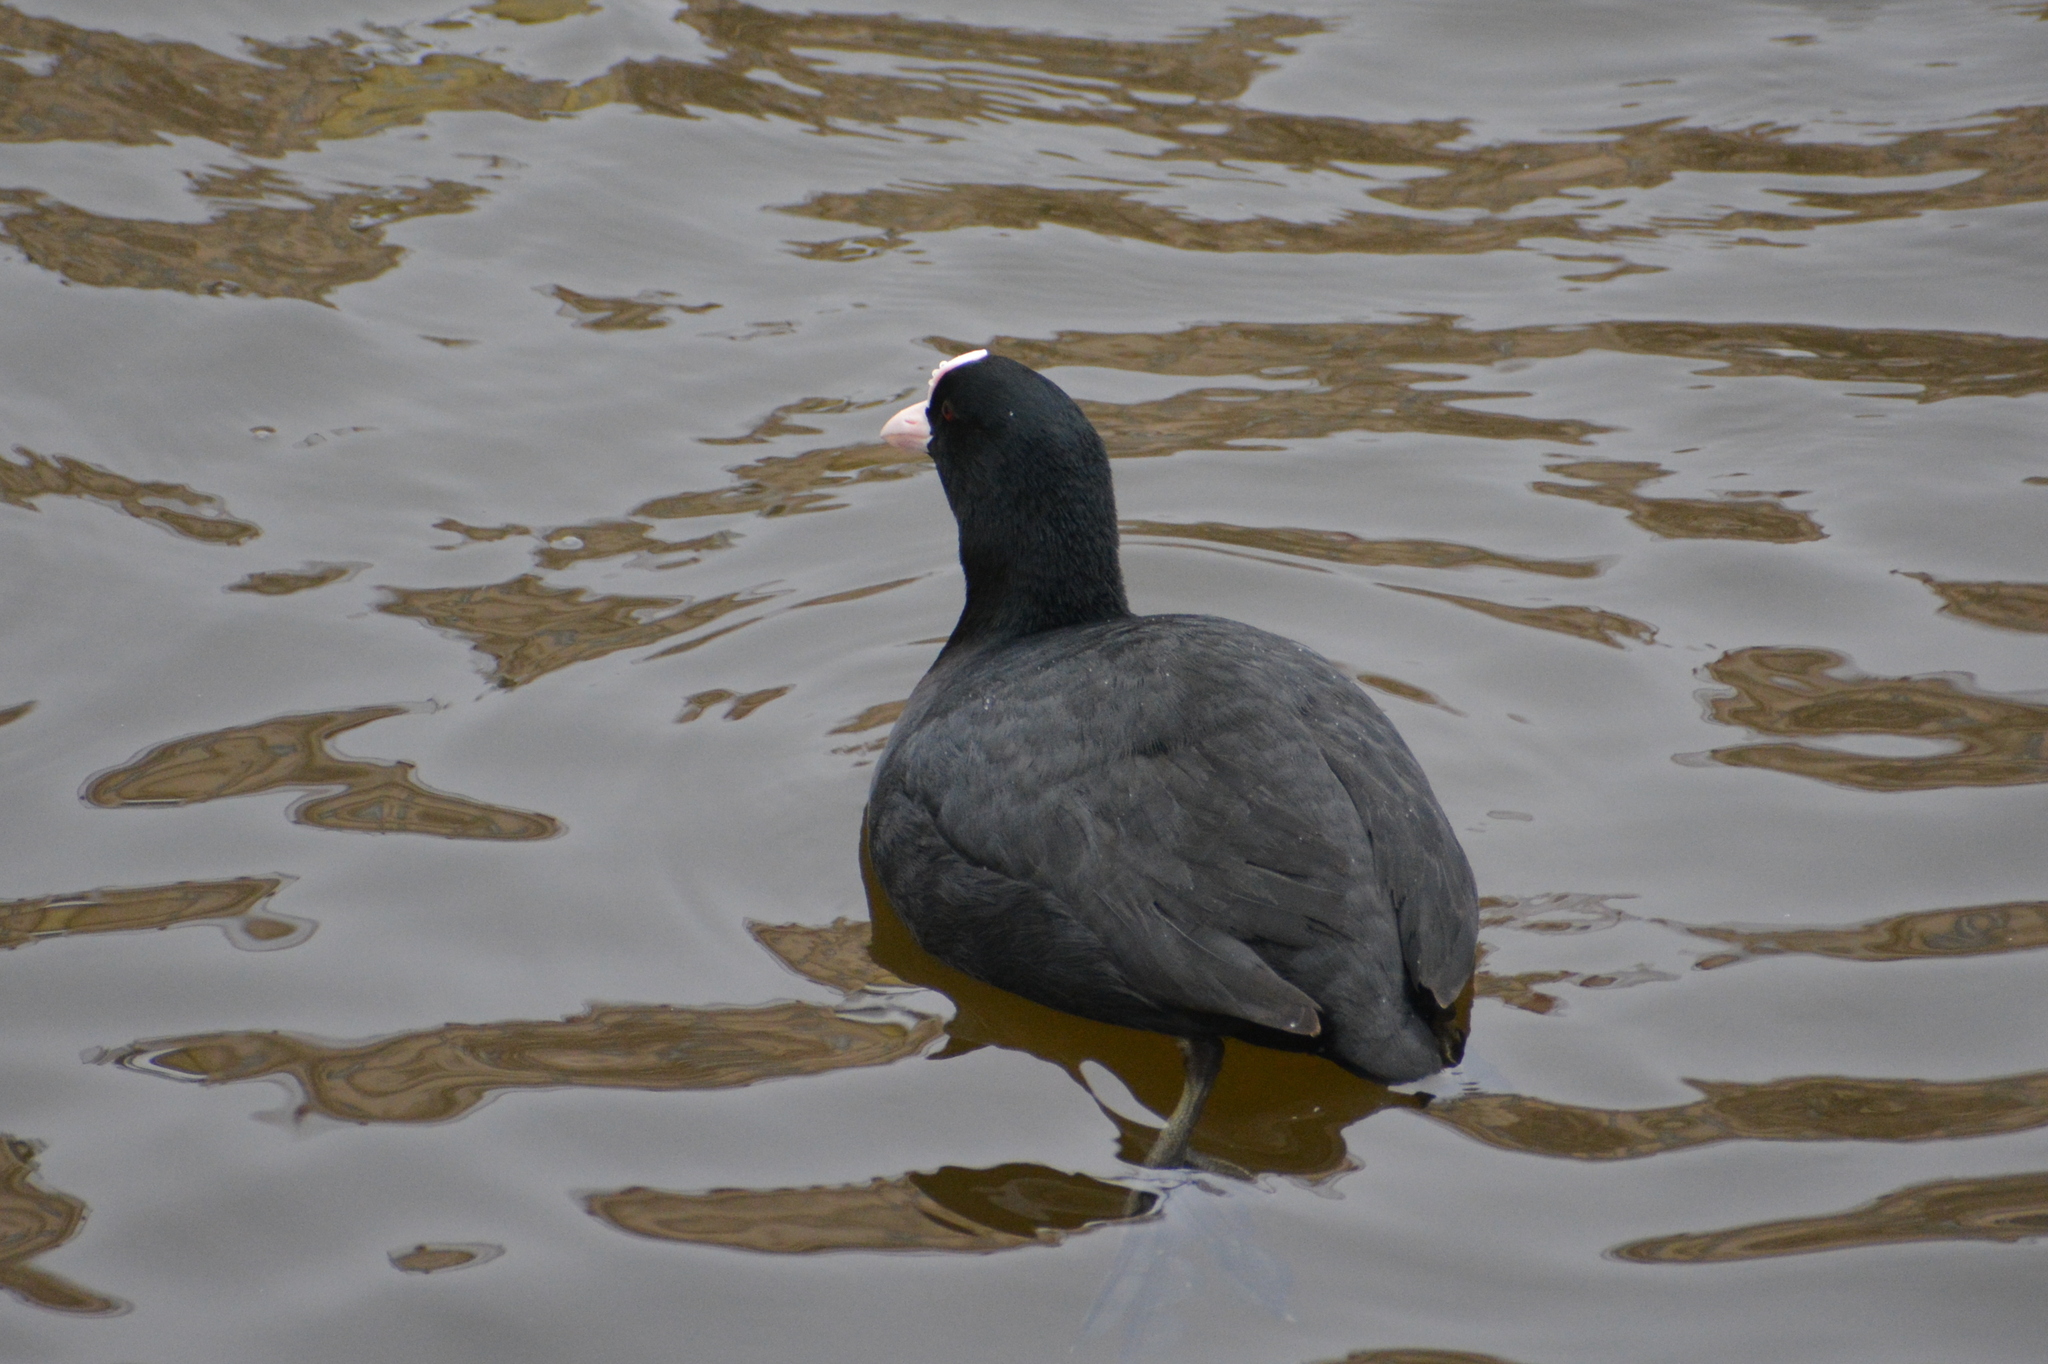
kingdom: Animalia
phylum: Chordata
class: Aves
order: Gruiformes
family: Rallidae
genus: Fulica
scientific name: Fulica atra
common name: Eurasian coot
